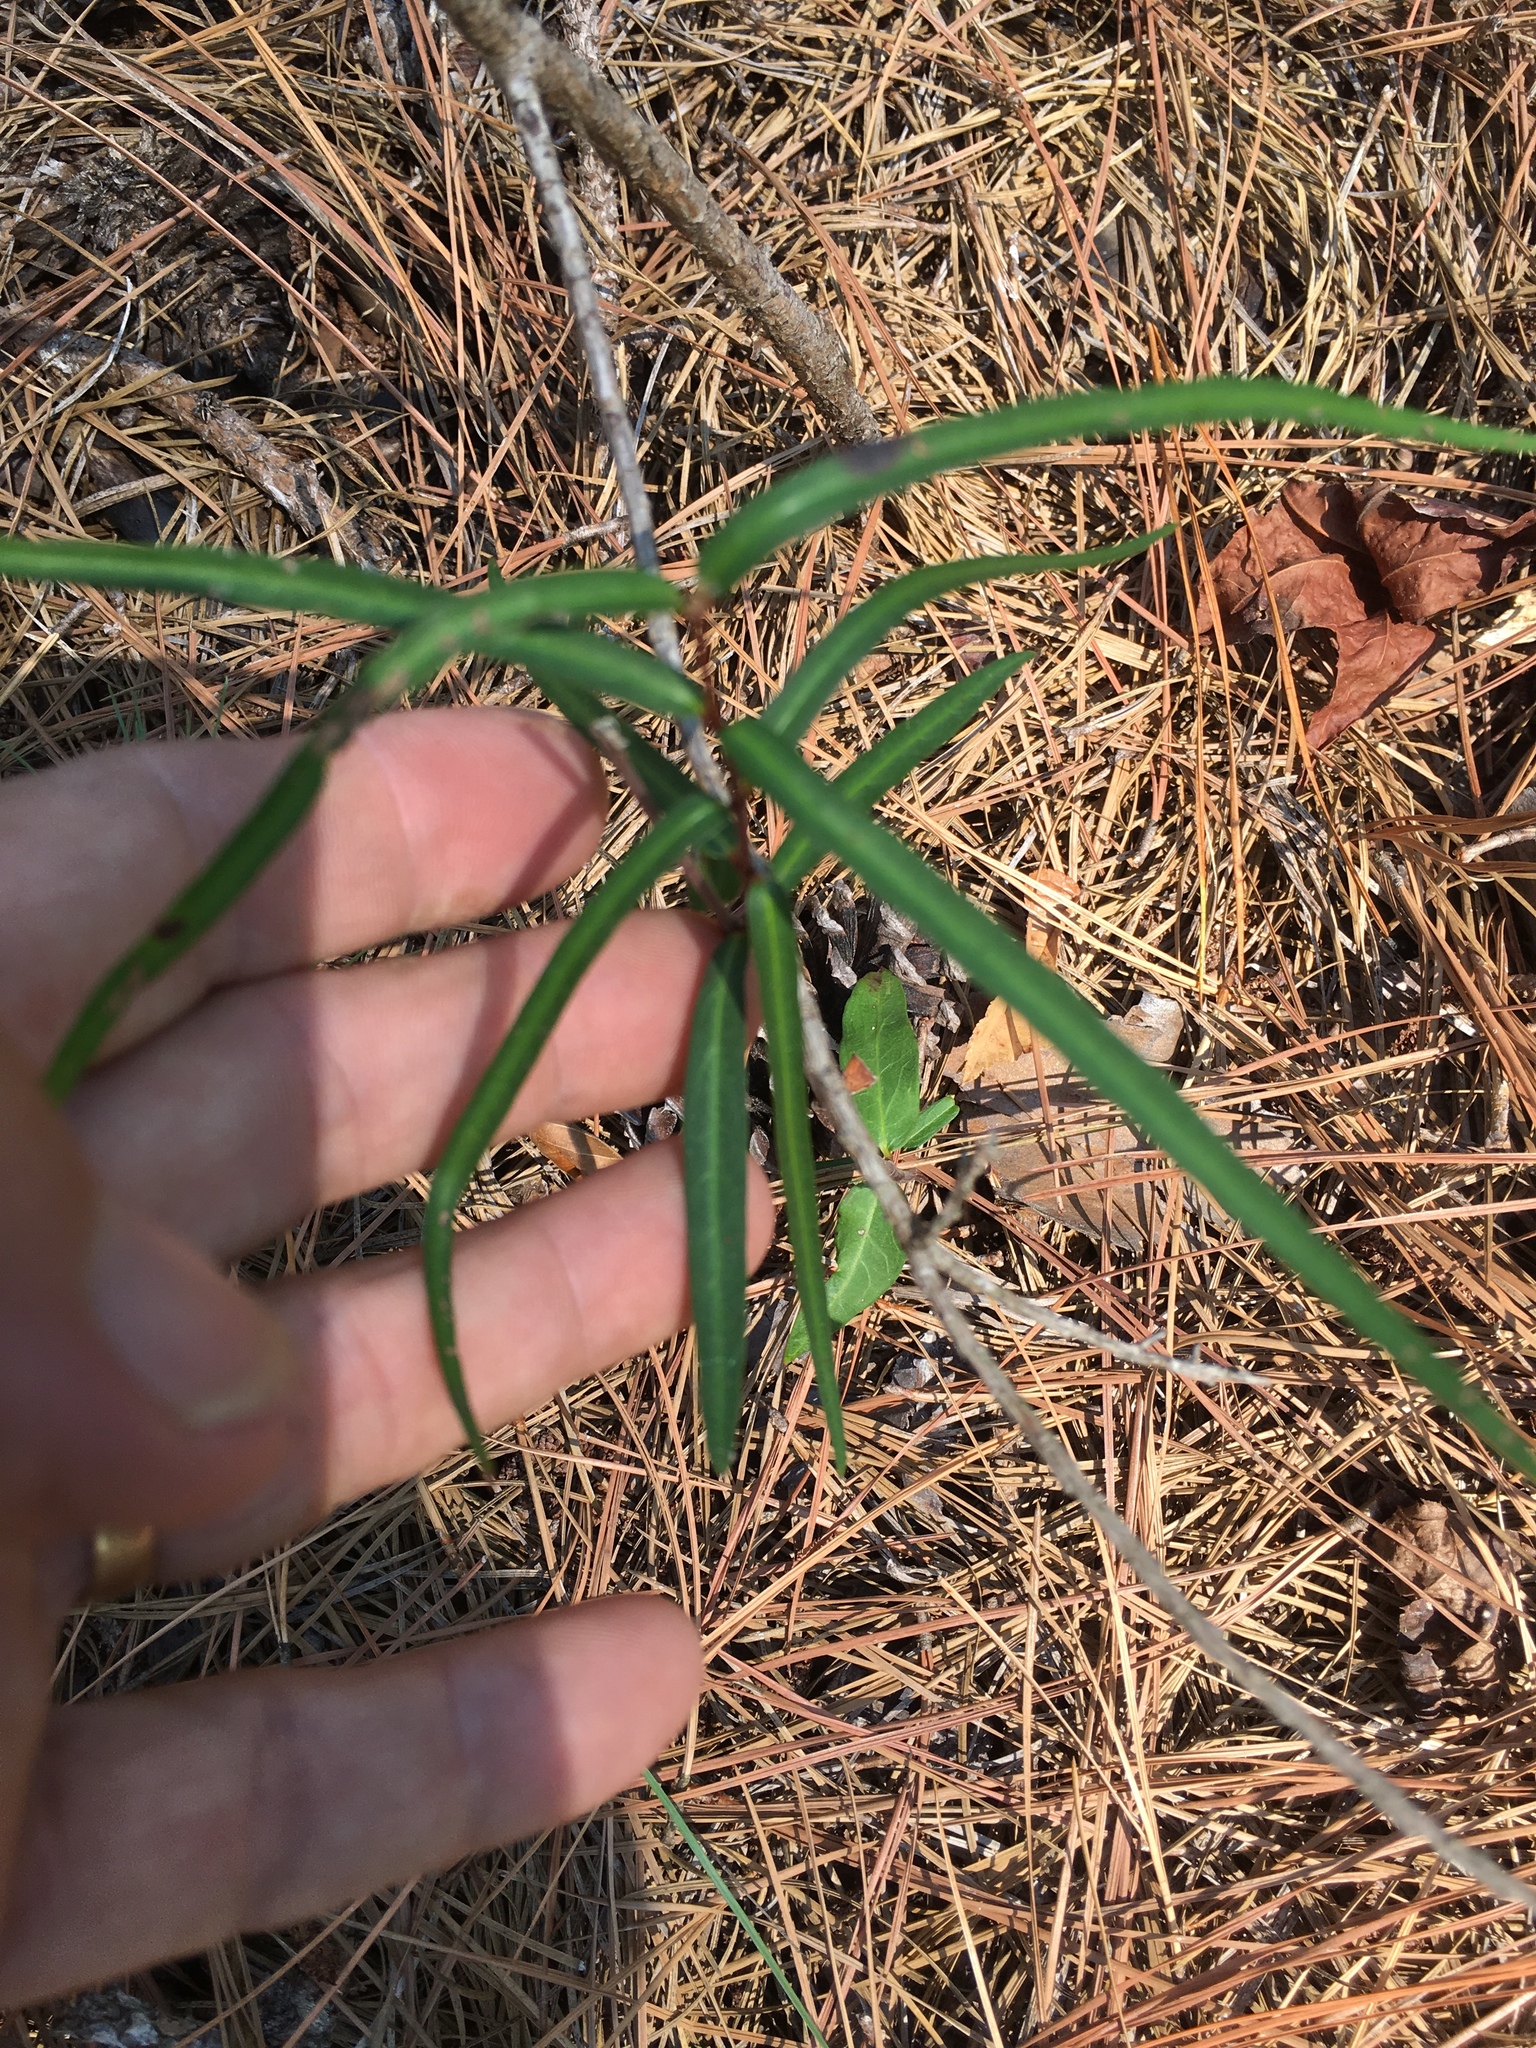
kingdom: Plantae
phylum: Tracheophyta
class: Magnoliopsida
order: Gentianales
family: Apocynaceae
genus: Thyrsanthella
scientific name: Thyrsanthella difformis
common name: Climbing dogbane
